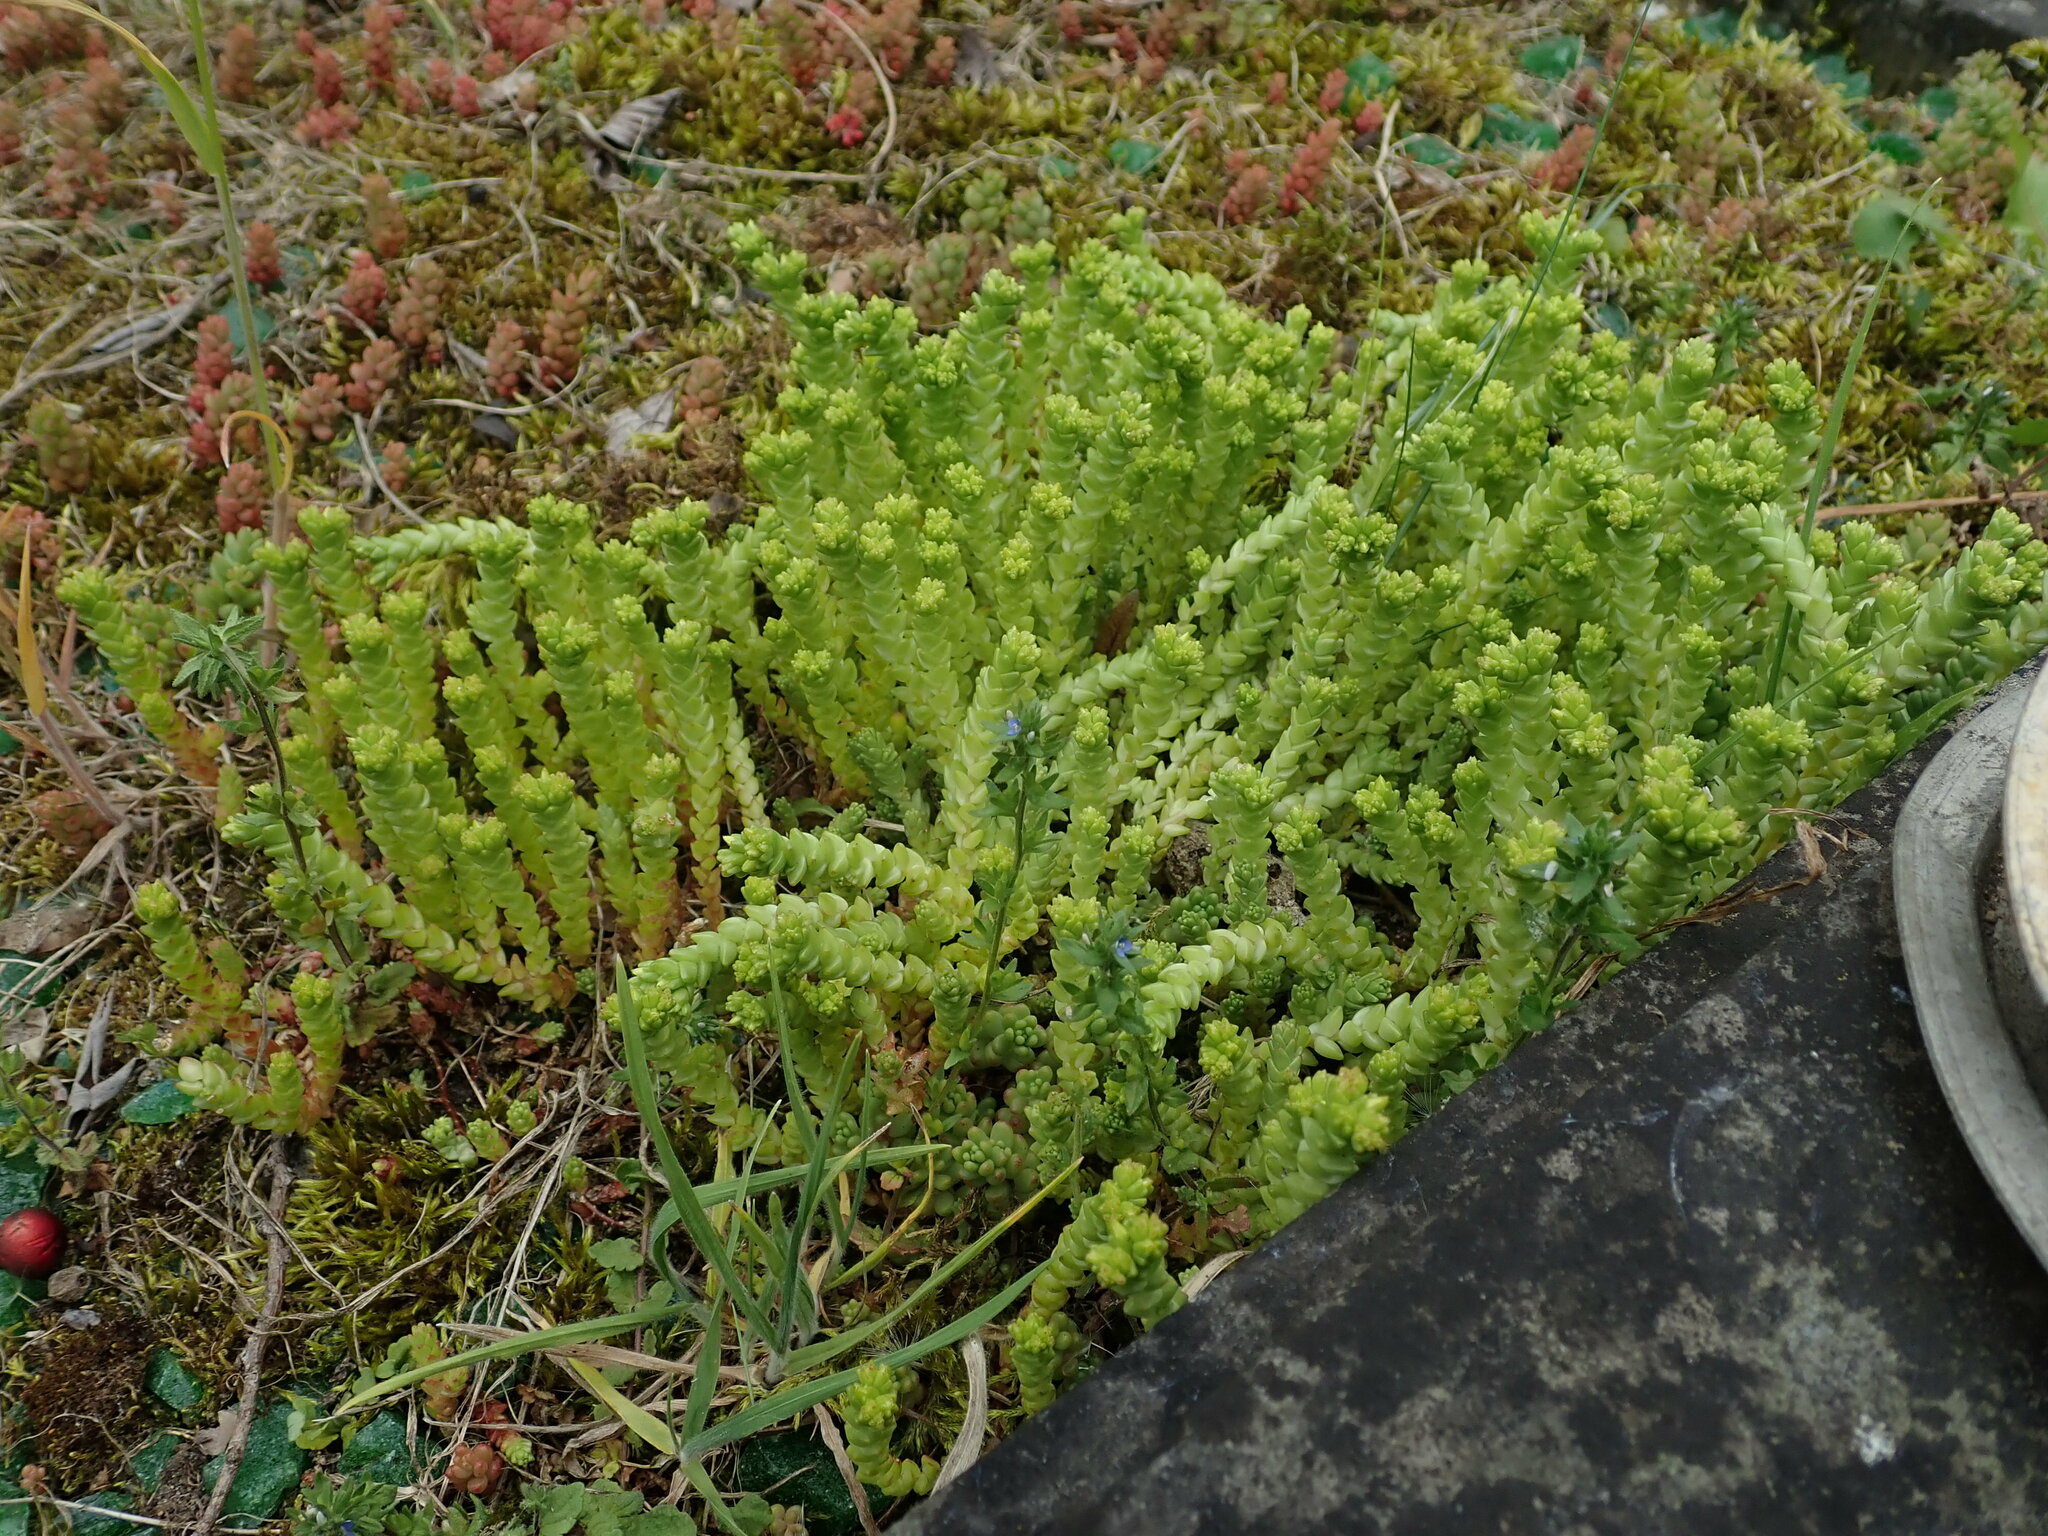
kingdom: Plantae
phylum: Tracheophyta
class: Magnoliopsida
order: Saxifragales
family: Crassulaceae
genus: Sedum
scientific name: Sedum acre
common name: Biting stonecrop
